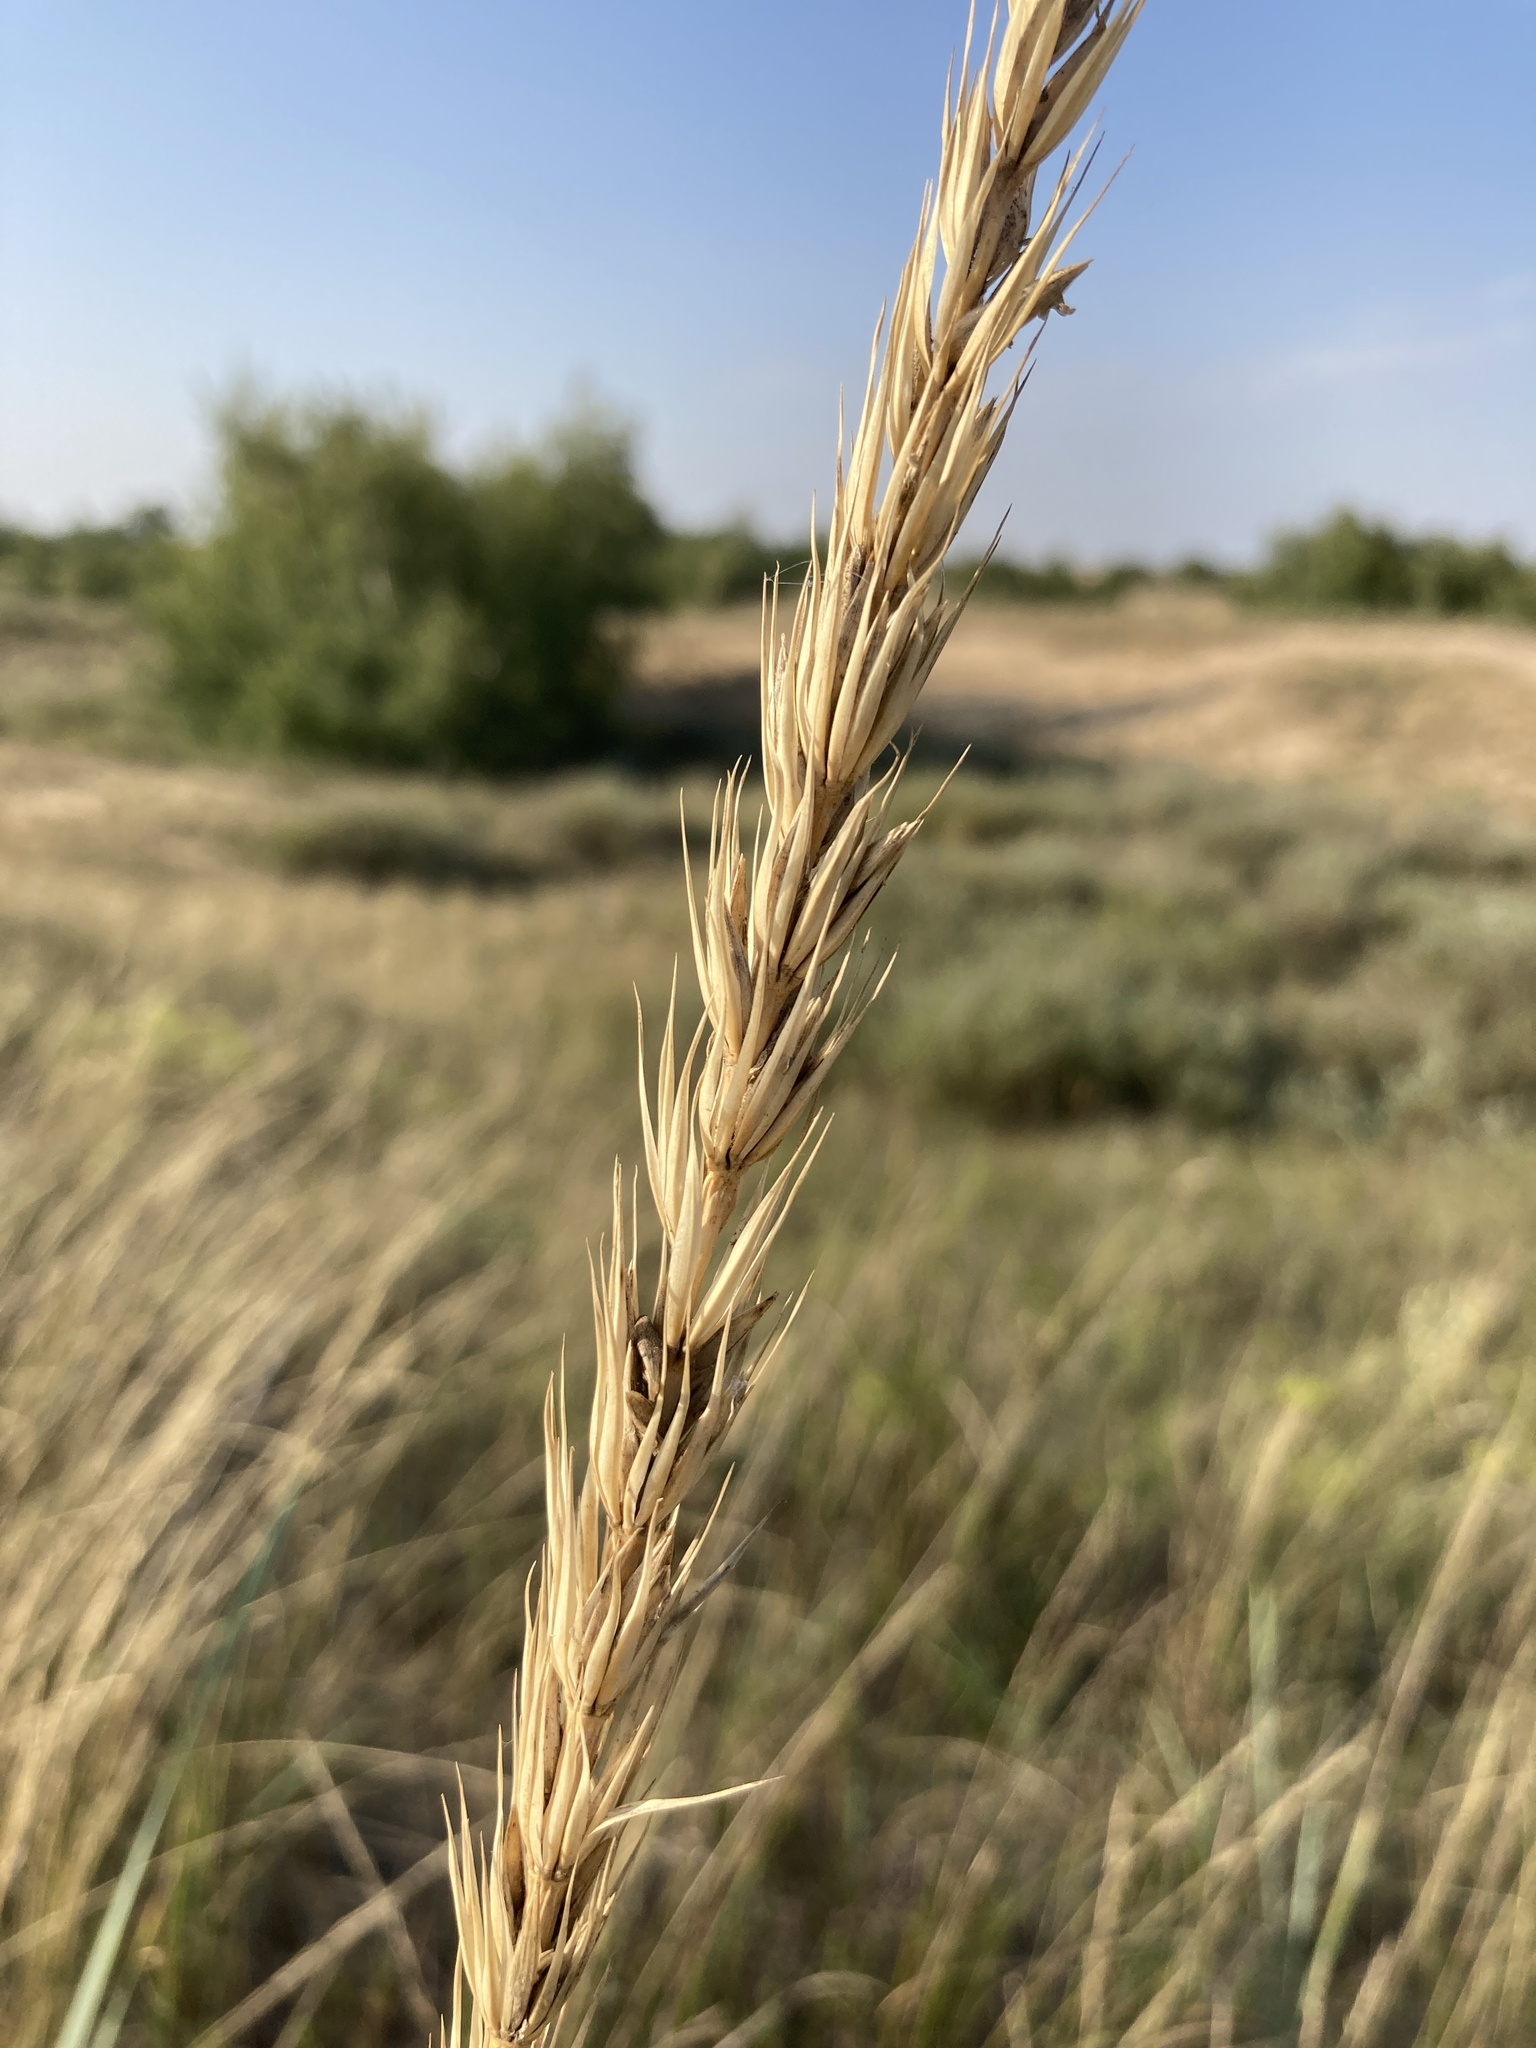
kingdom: Plantae
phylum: Tracheophyta
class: Liliopsida
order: Poales
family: Poaceae
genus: Leymus
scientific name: Leymus racemosus
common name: Mammoth wildrye
